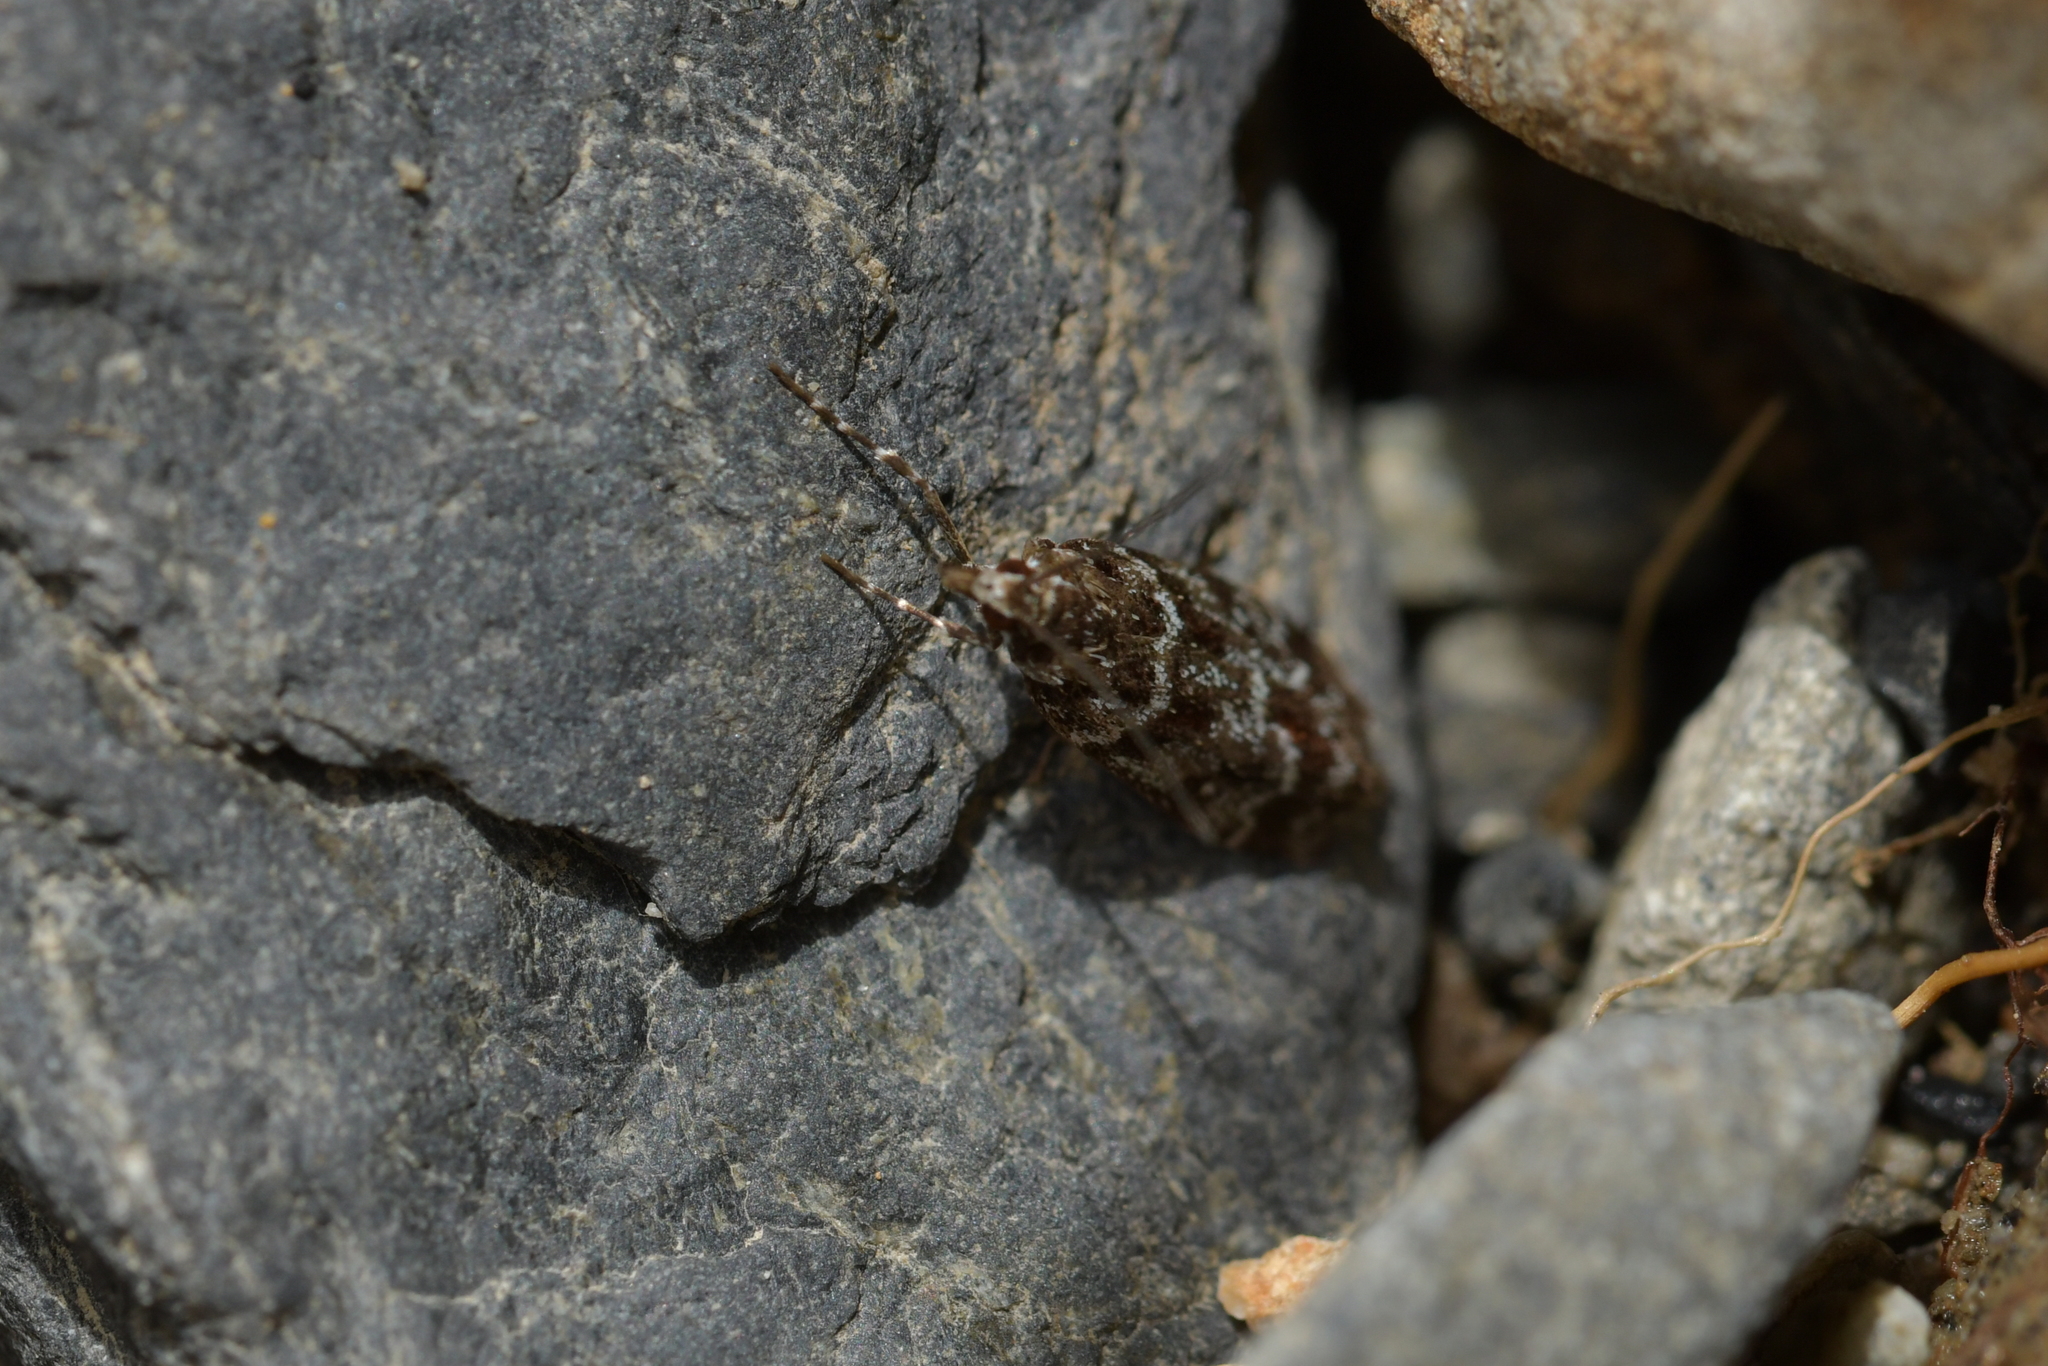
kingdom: Animalia
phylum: Arthropoda
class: Insecta
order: Lepidoptera
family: Crambidae
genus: Eudonia
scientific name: Eudonia legnota
